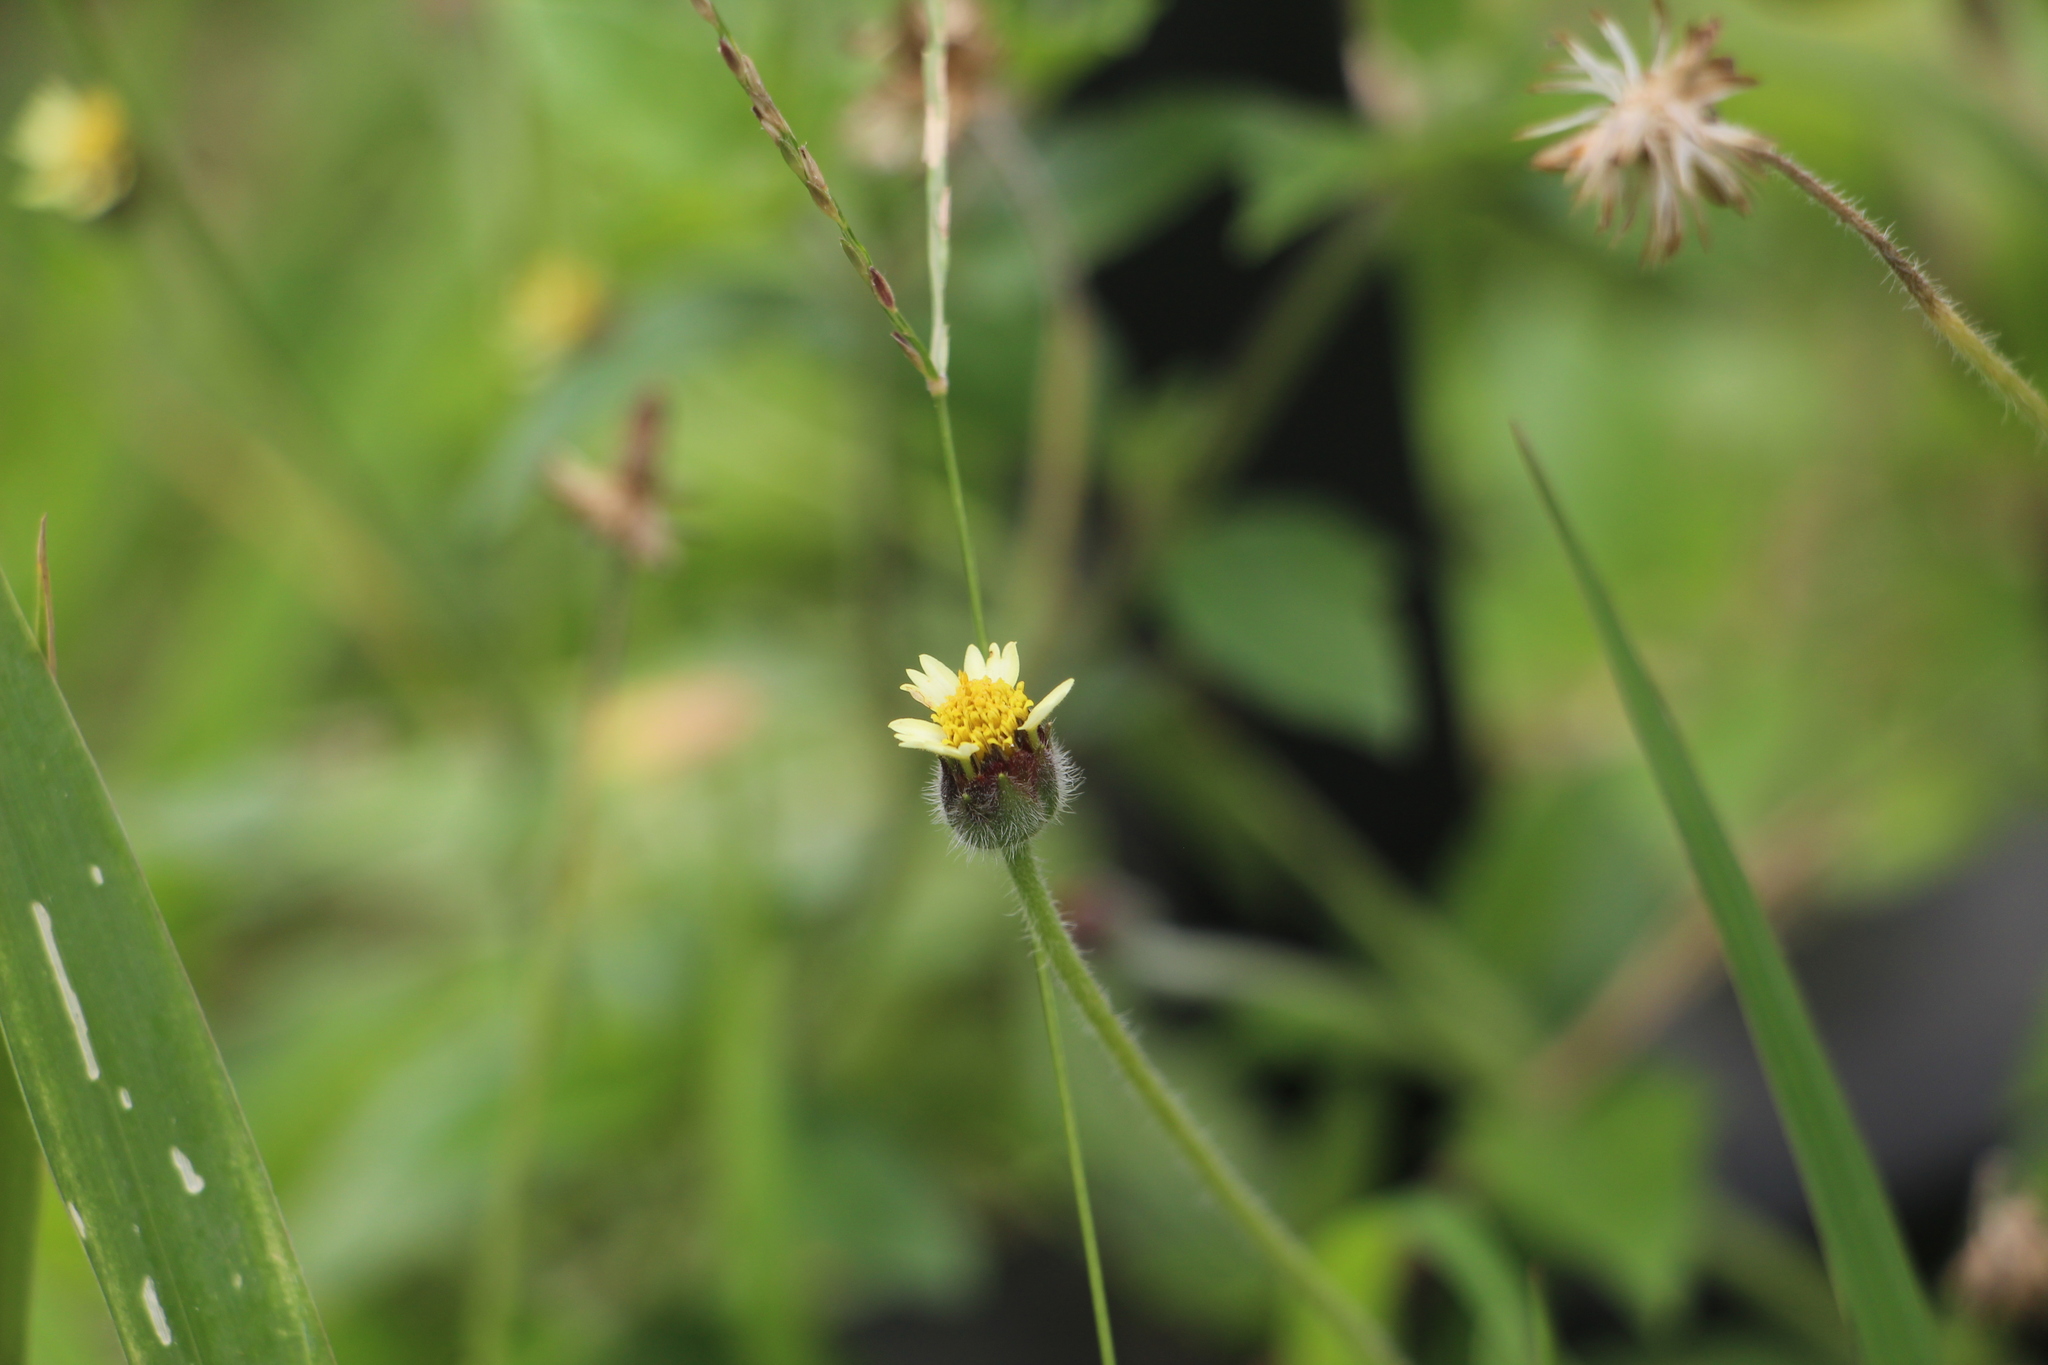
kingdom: Plantae
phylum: Tracheophyta
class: Magnoliopsida
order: Asterales
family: Asteraceae
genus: Tridax
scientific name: Tridax procumbens
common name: Coatbuttons
